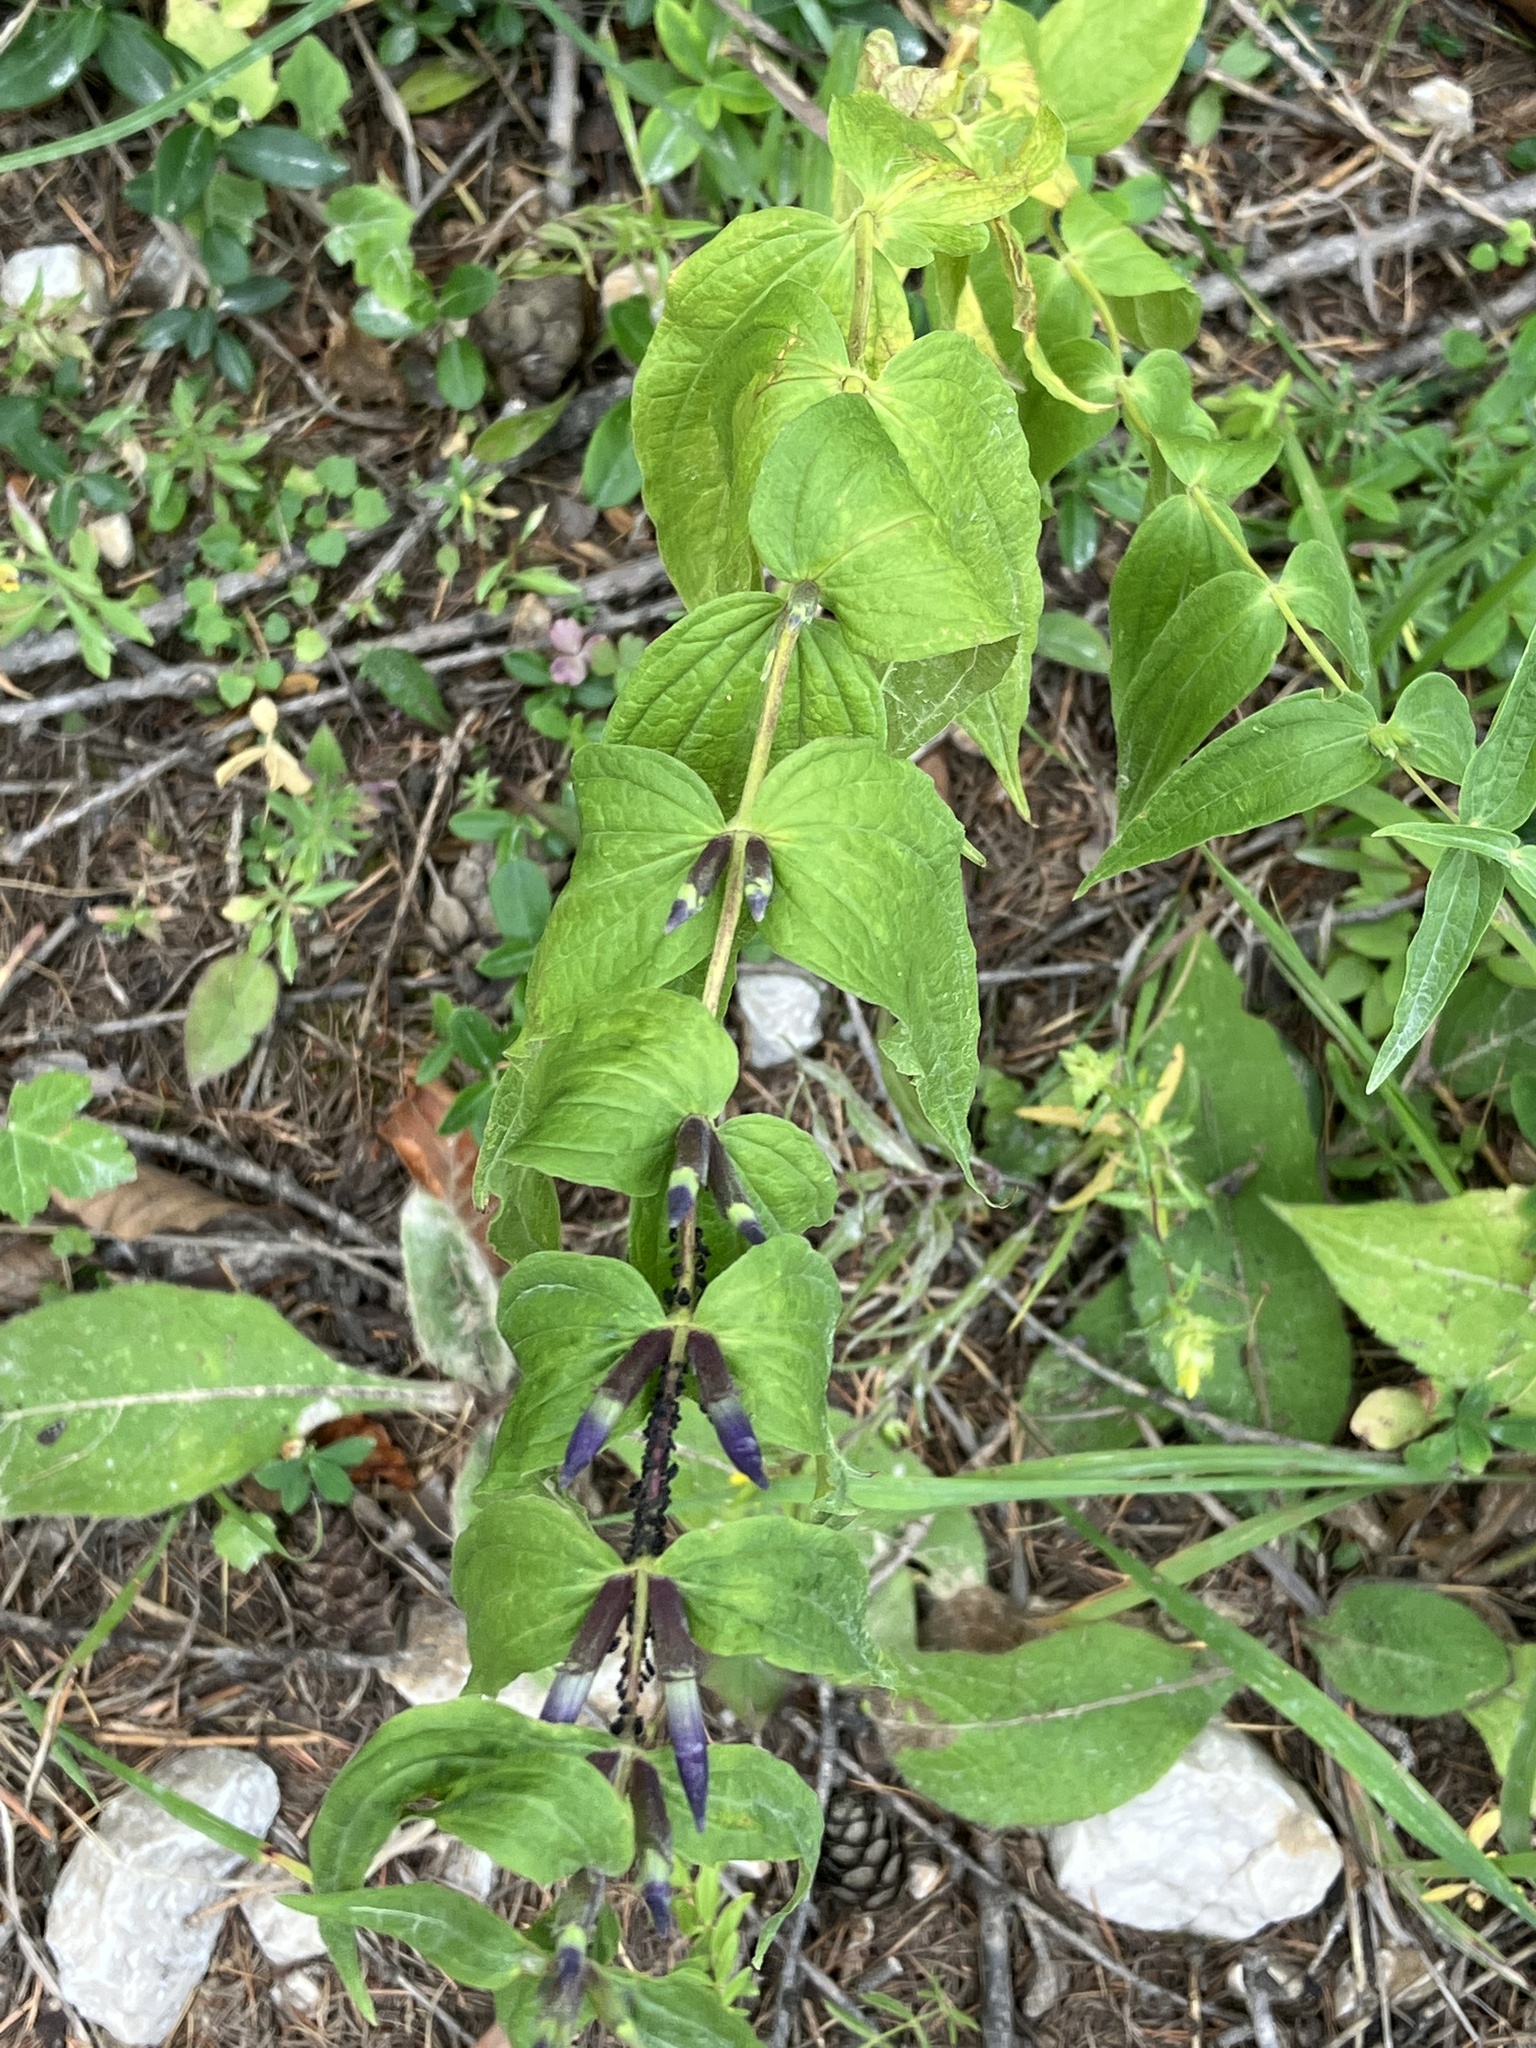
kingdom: Plantae
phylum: Tracheophyta
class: Magnoliopsida
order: Gentianales
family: Gentianaceae
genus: Gentiana
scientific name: Gentiana asclepiadea
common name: Willow gentian
